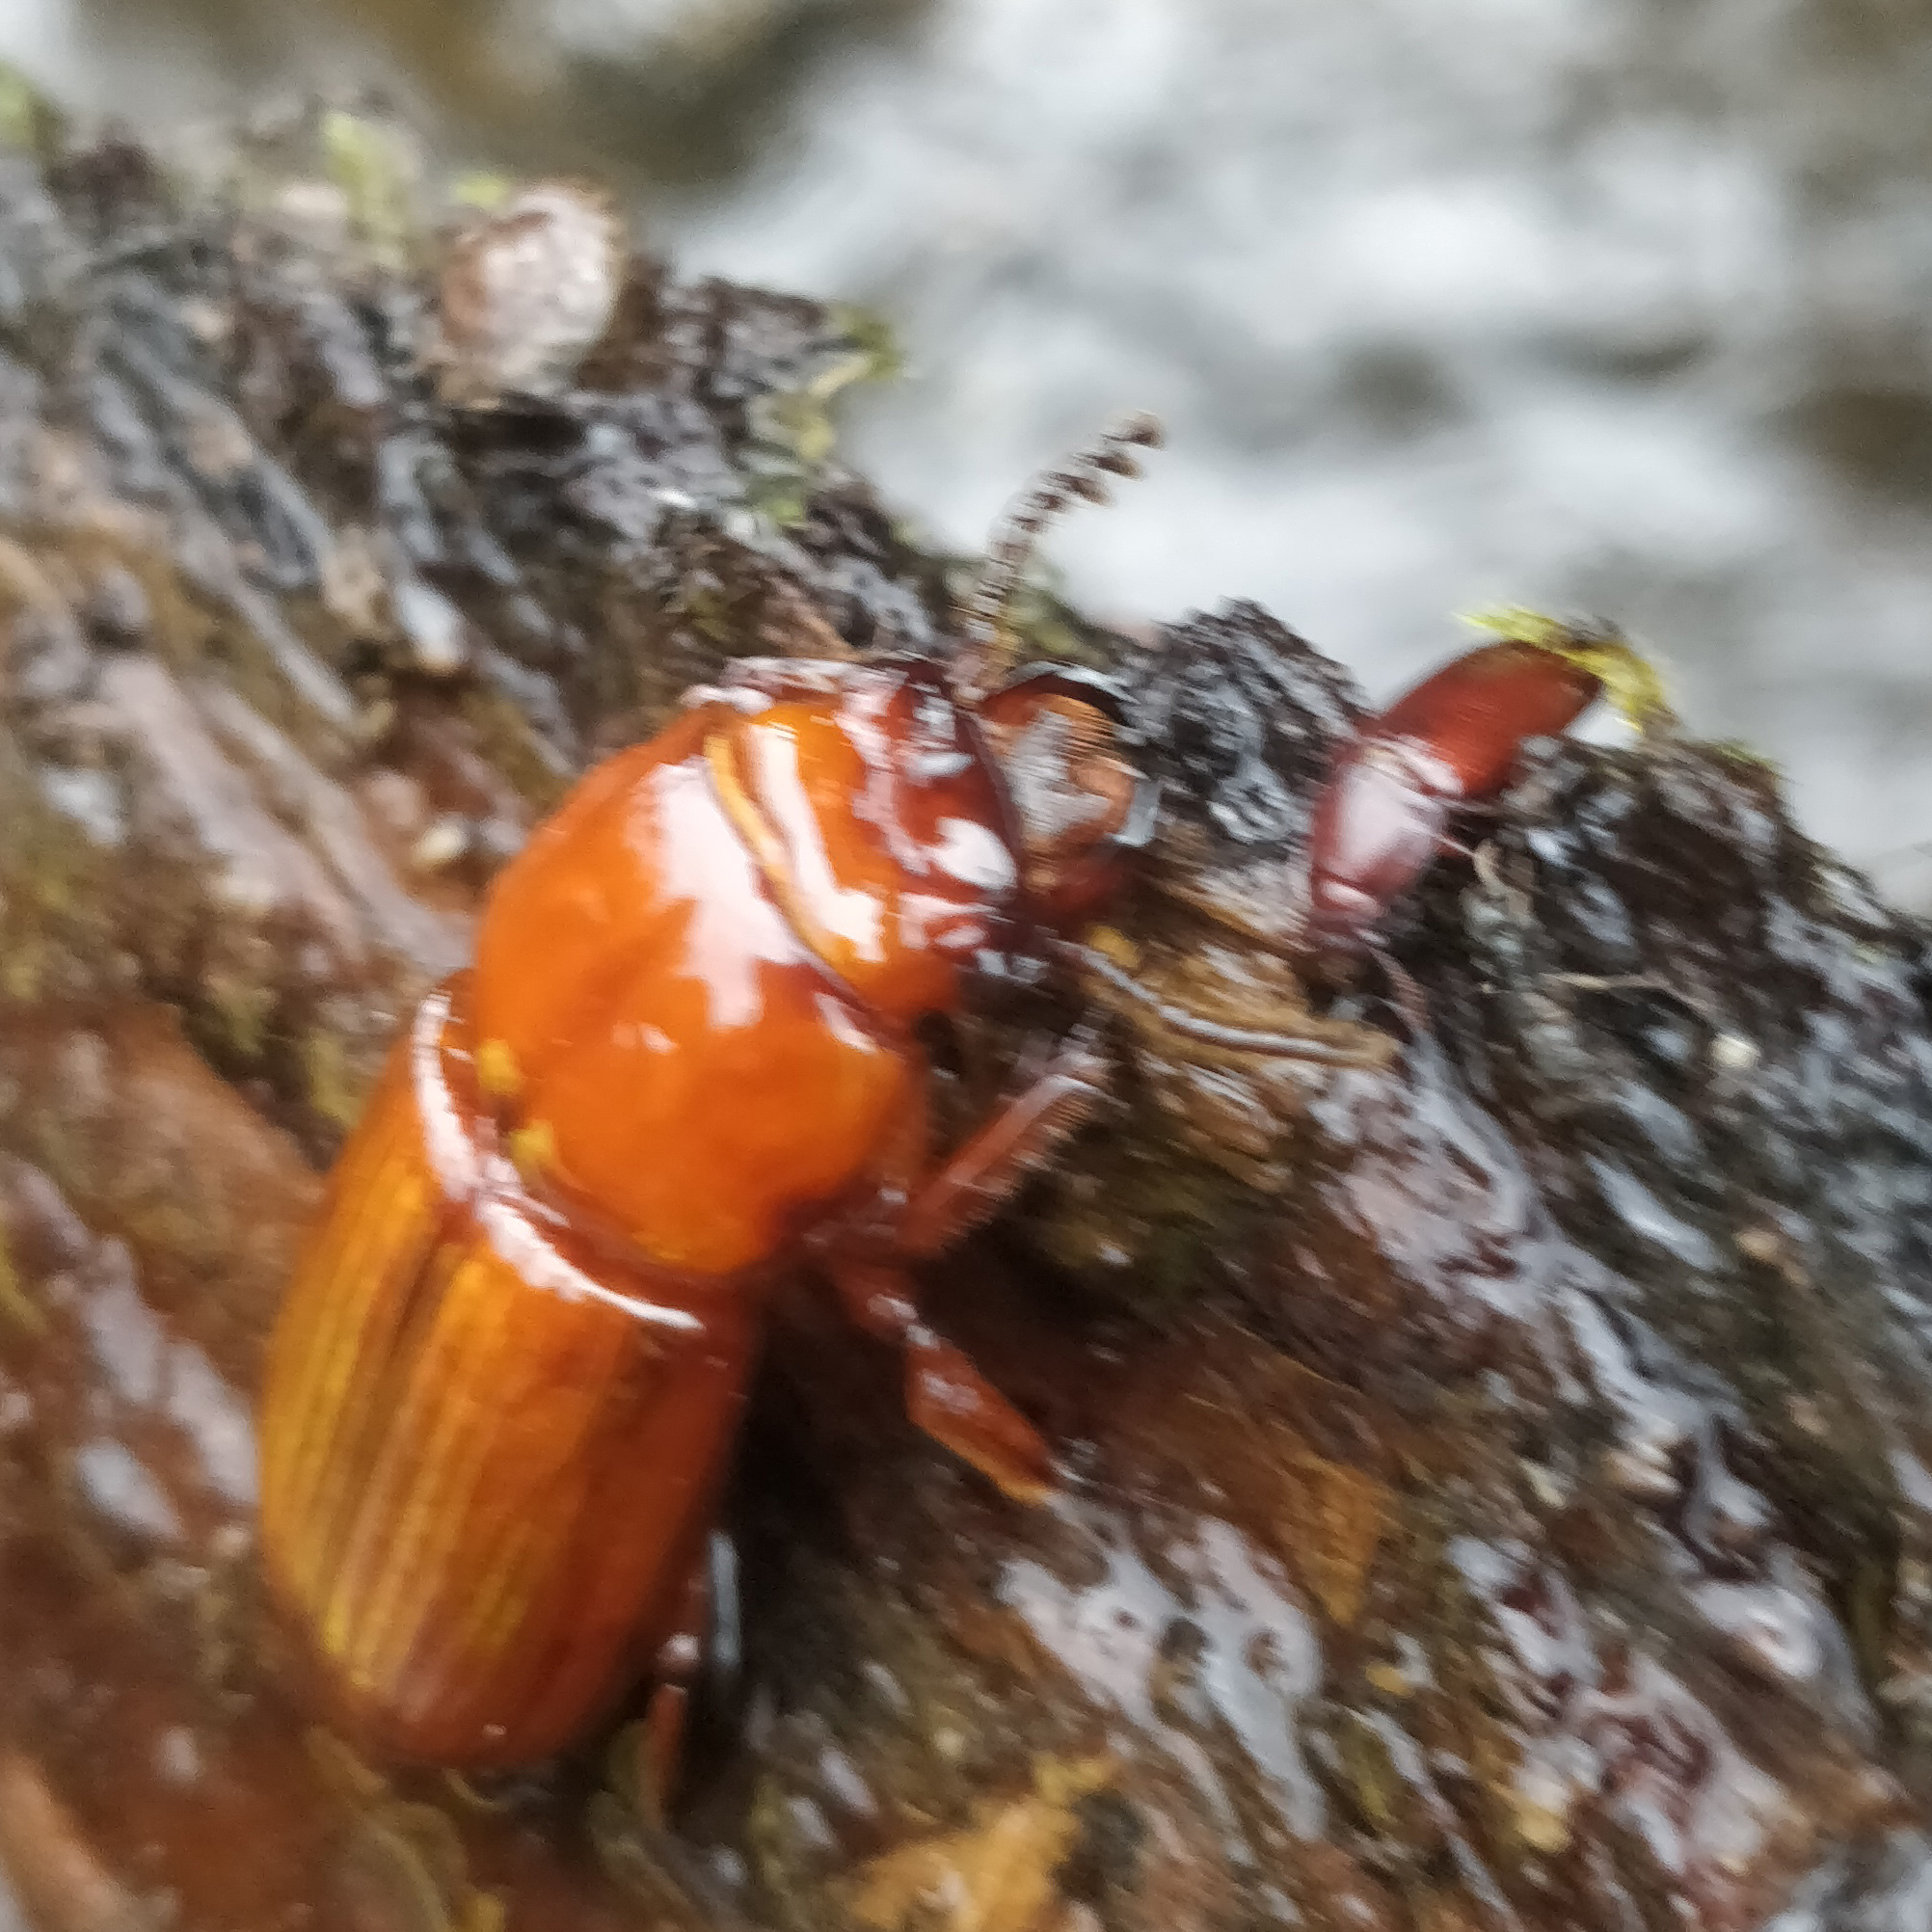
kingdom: Animalia
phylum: Arthropoda
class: Insecta
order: Coleoptera
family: Passalidae
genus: Odontotaenius
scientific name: Odontotaenius disjunctus
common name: Patent leather beetle
